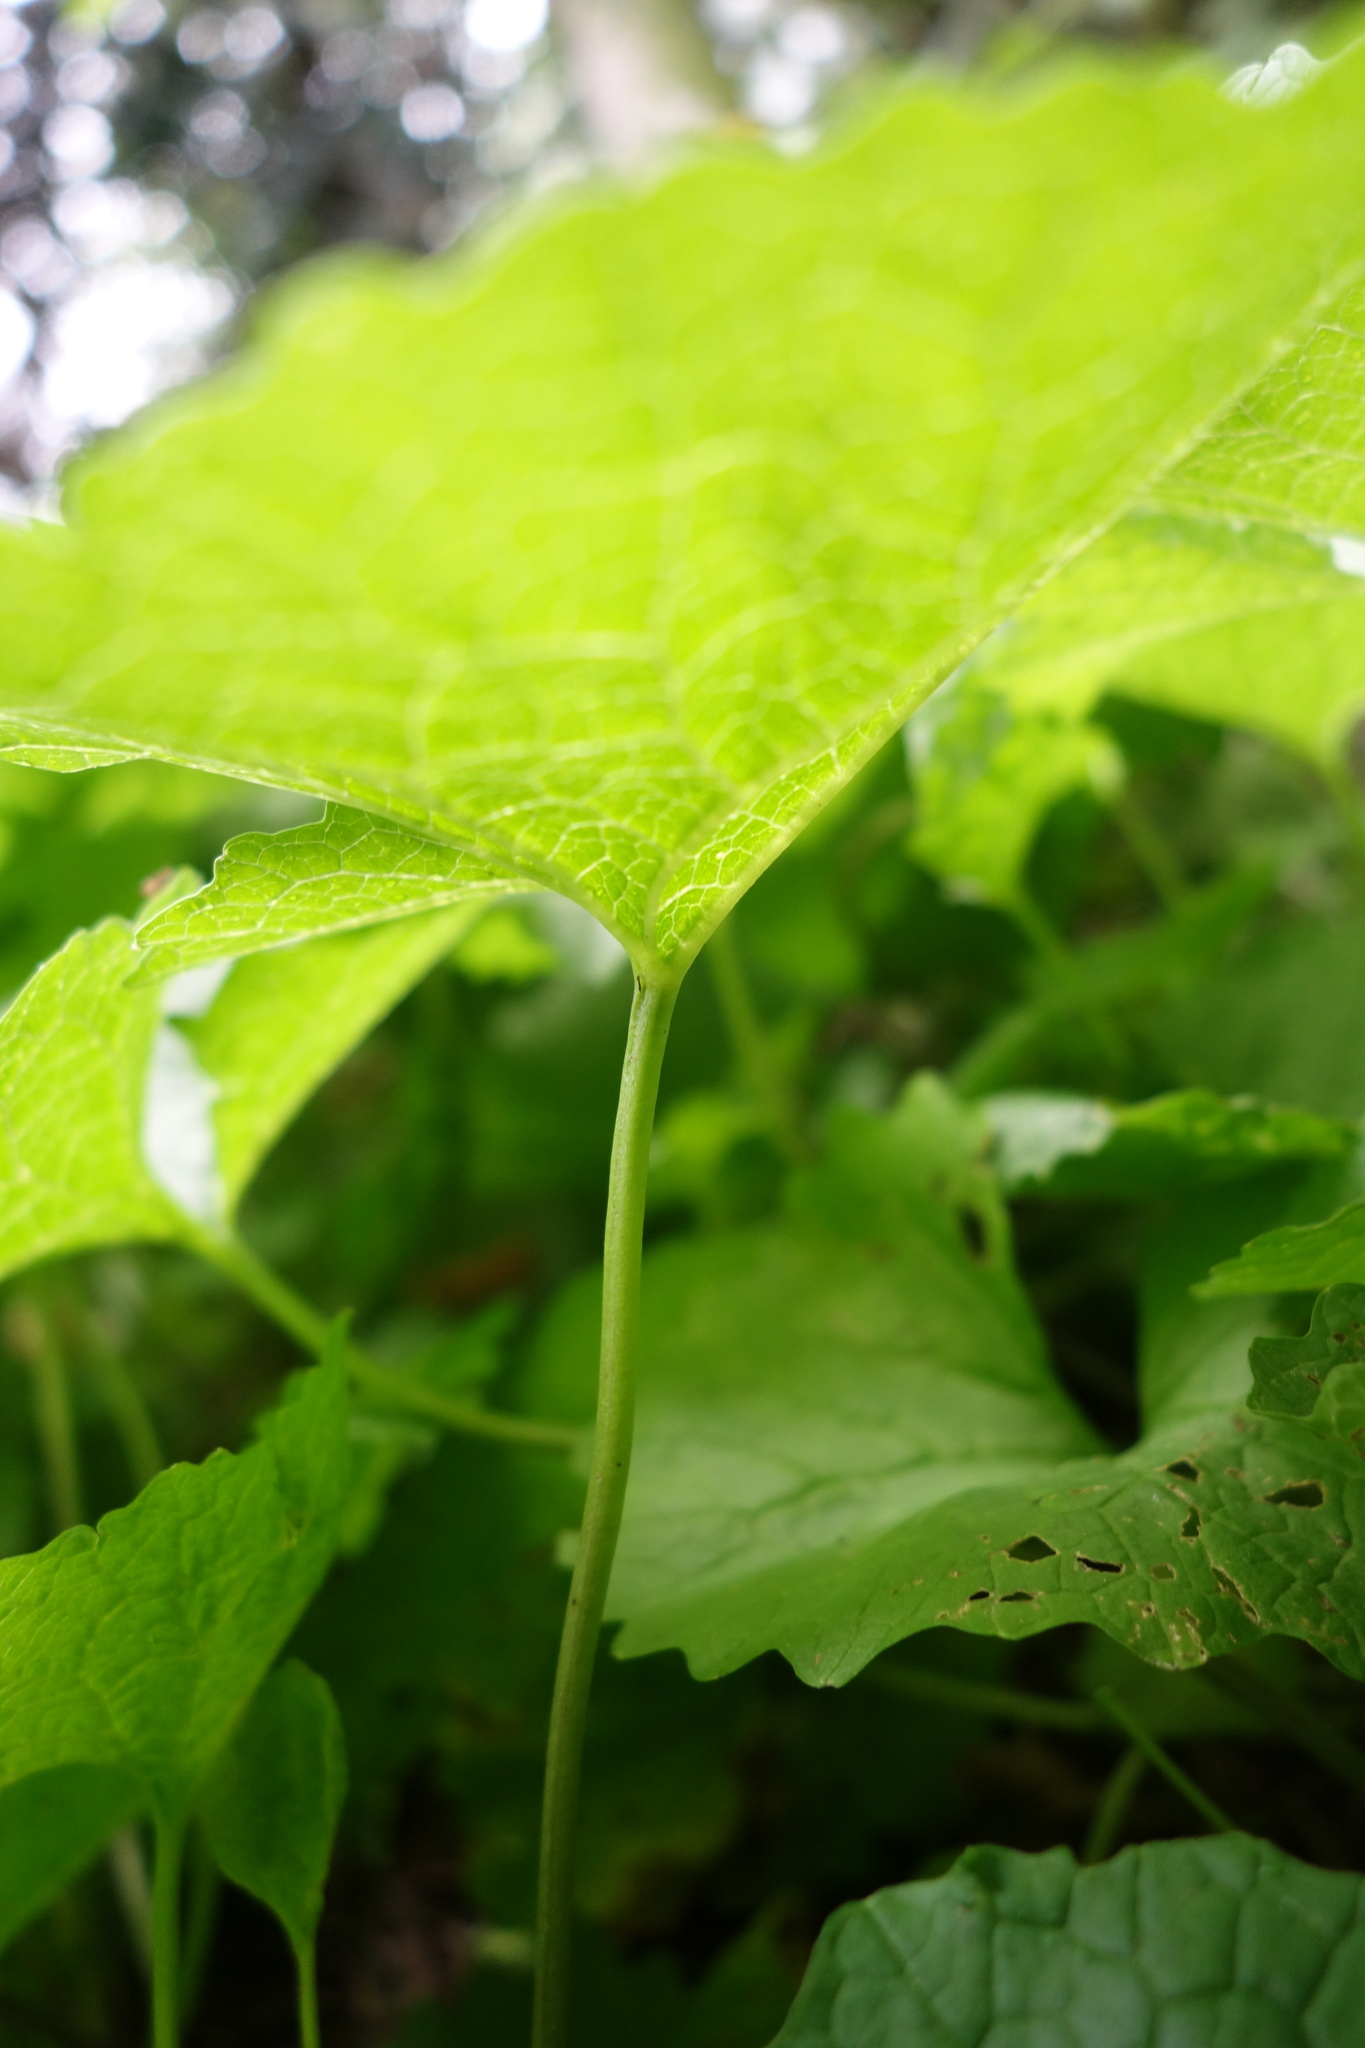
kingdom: Plantae
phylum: Tracheophyta
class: Magnoliopsida
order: Brassicales
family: Brassicaceae
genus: Alliaria
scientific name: Alliaria petiolata
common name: Garlic mustard
